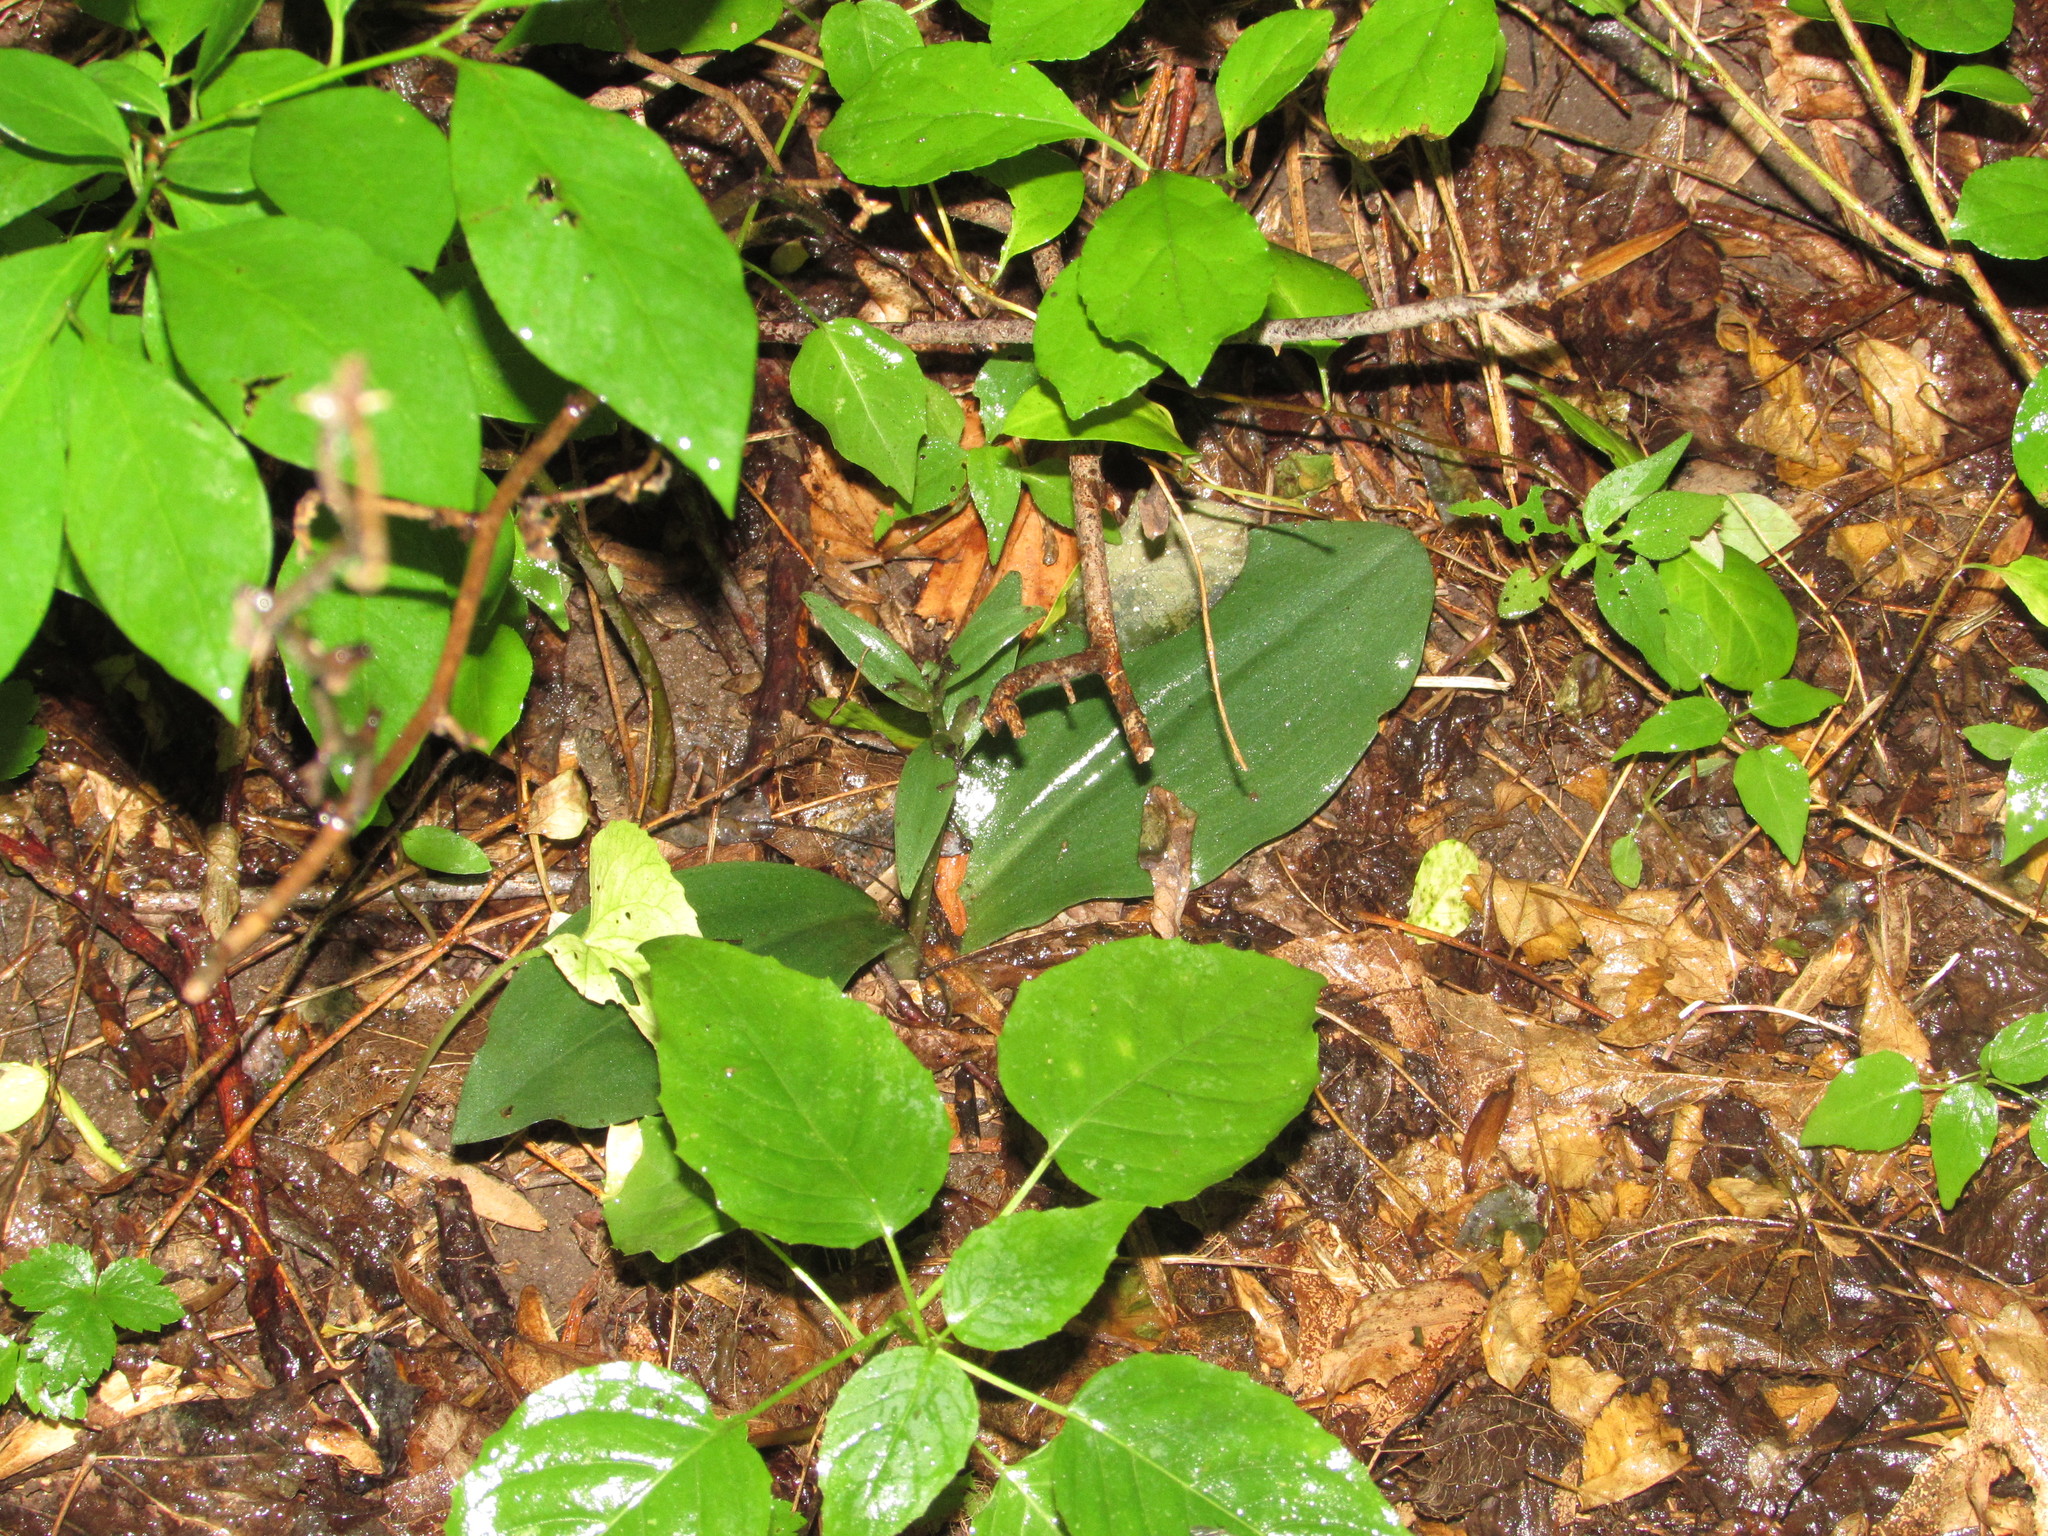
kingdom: Plantae
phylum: Tracheophyta
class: Liliopsida
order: Asparagales
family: Orchidaceae
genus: Galearis
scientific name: Galearis spectabilis
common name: Purple-hooded orchis
